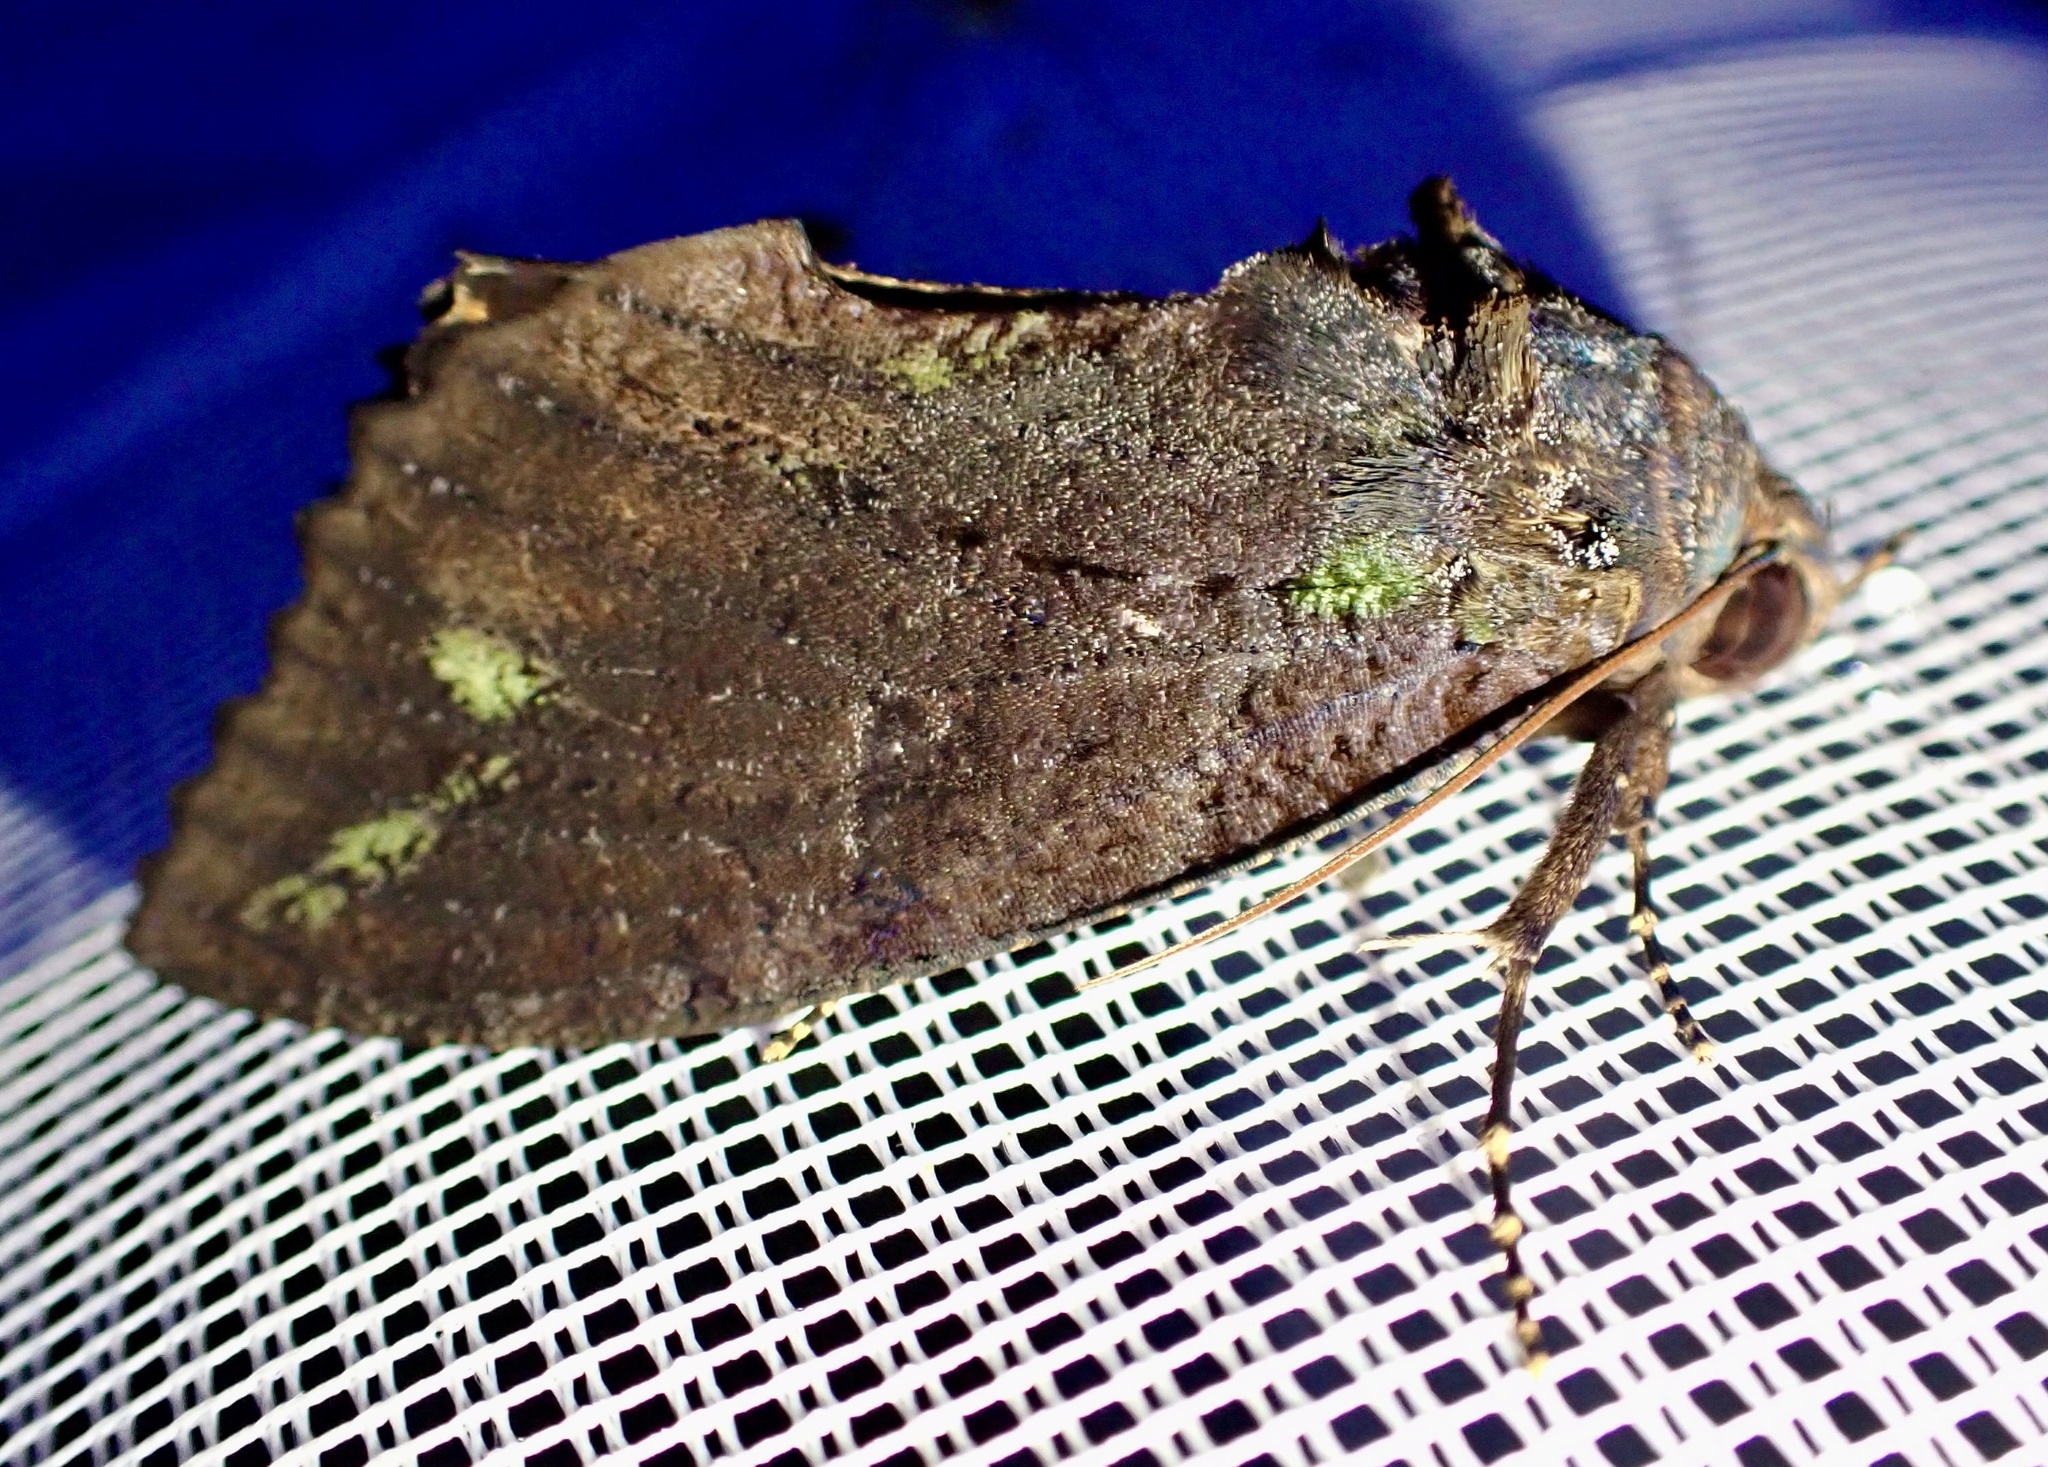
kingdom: Animalia
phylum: Arthropoda
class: Insecta
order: Lepidoptera
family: Erebidae
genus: Eudocima
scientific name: Eudocima jordani
